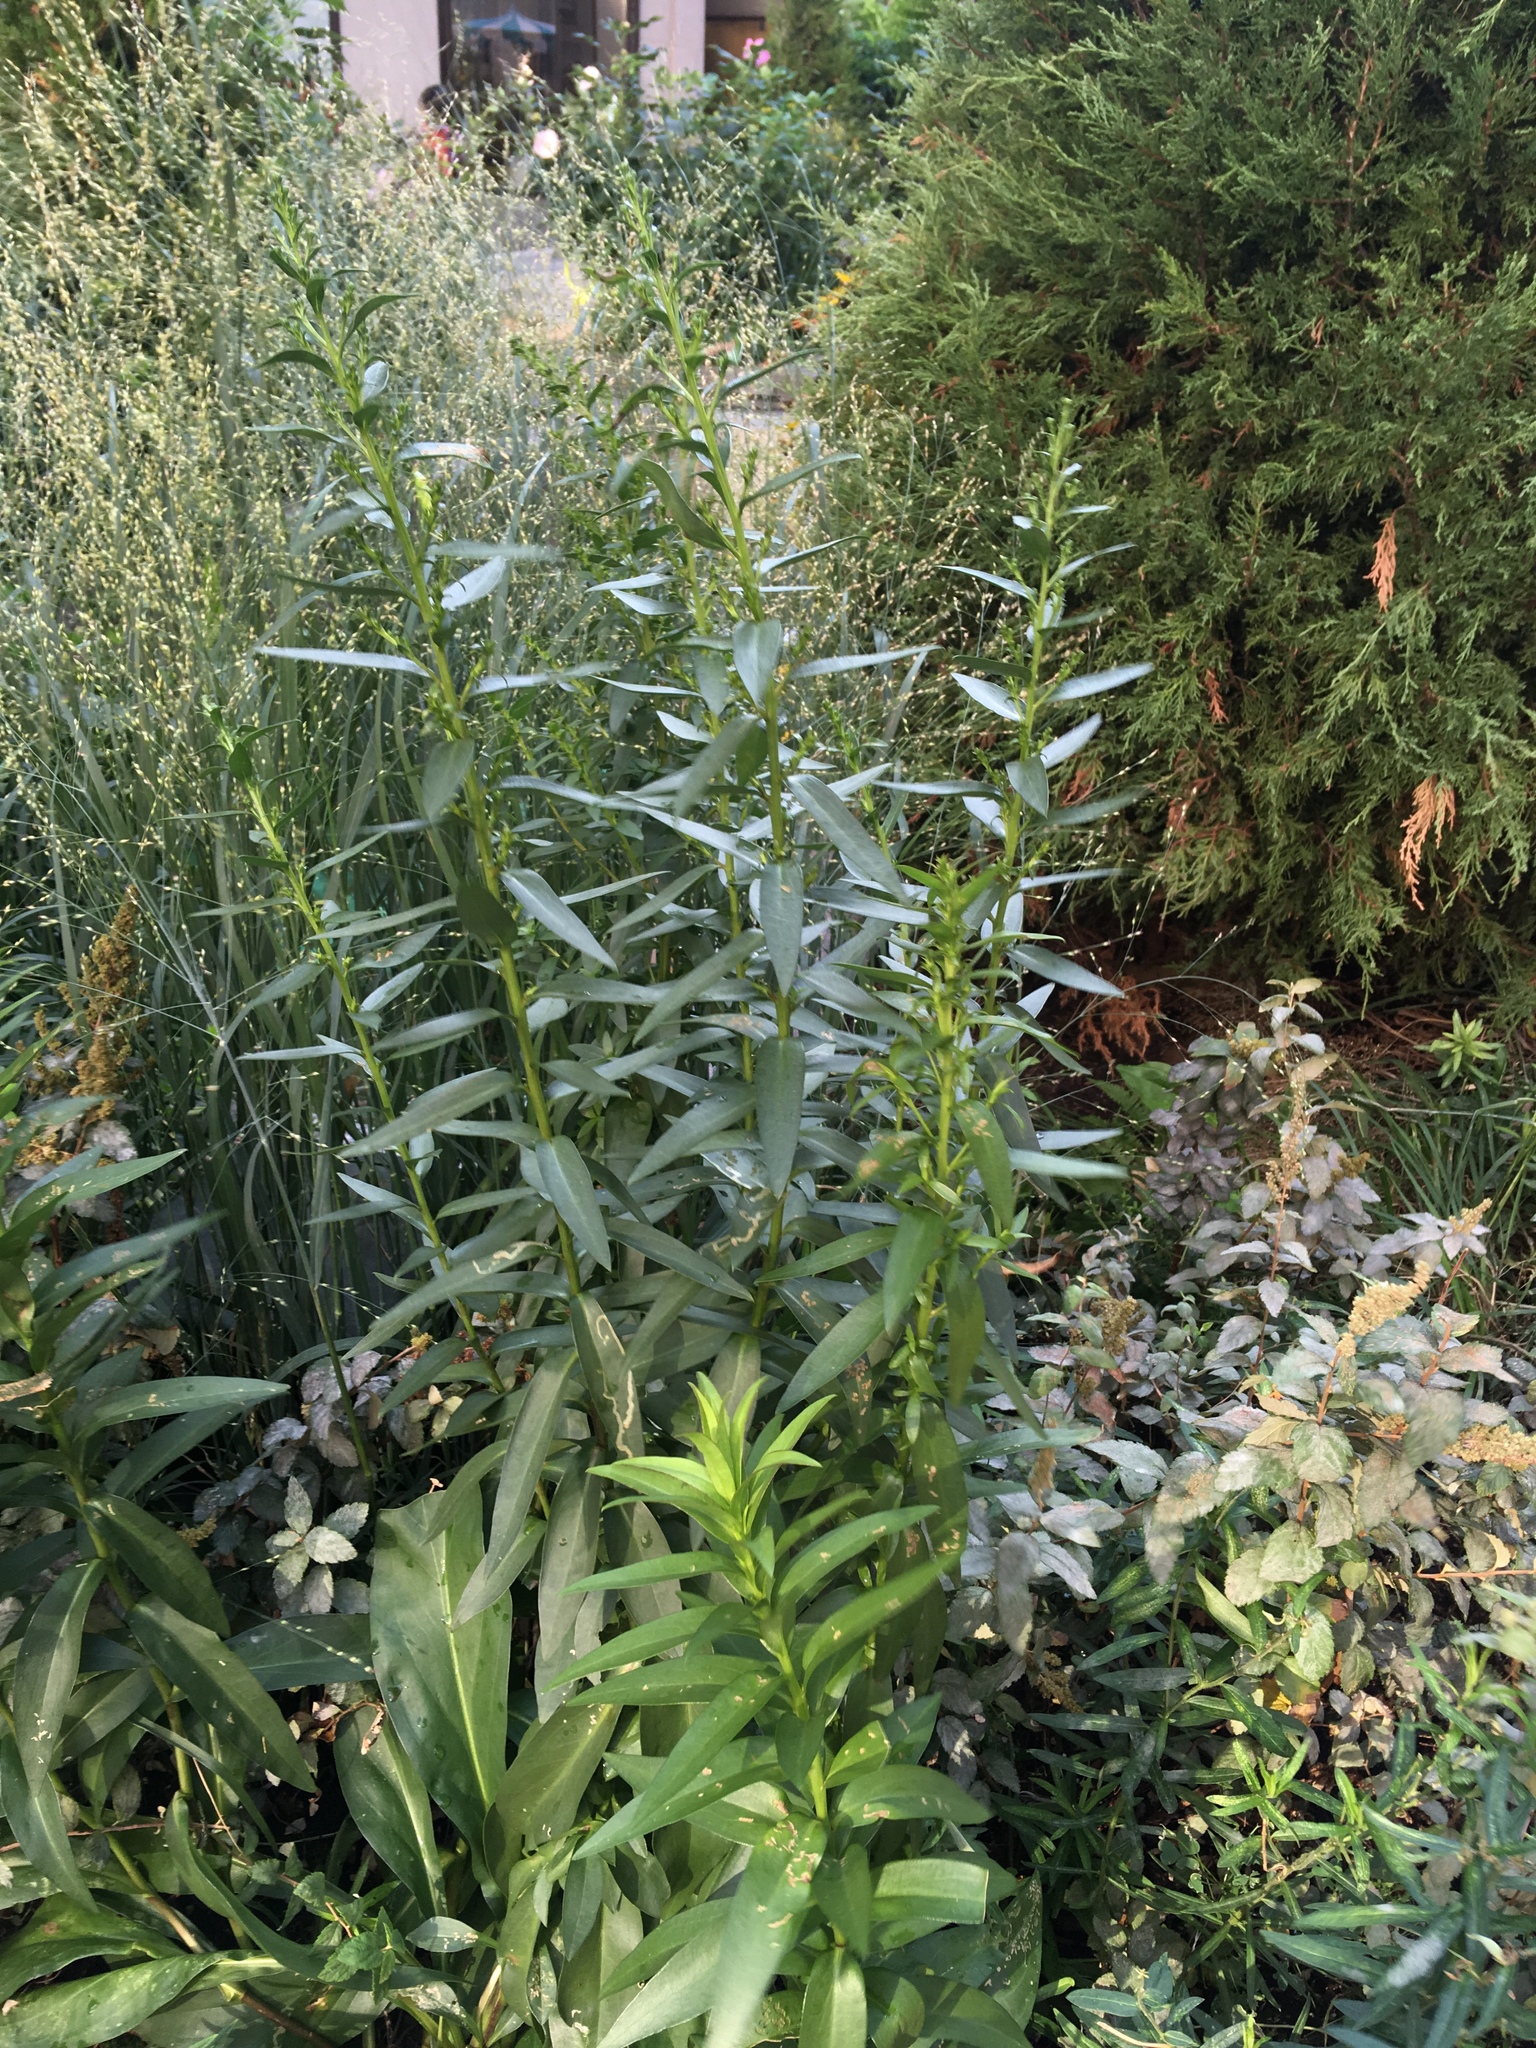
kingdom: Plantae
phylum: Tracheophyta
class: Magnoliopsida
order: Asterales
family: Asteraceae
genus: Solidago
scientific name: Solidago sempervirens
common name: Salt-marsh goldenrod
